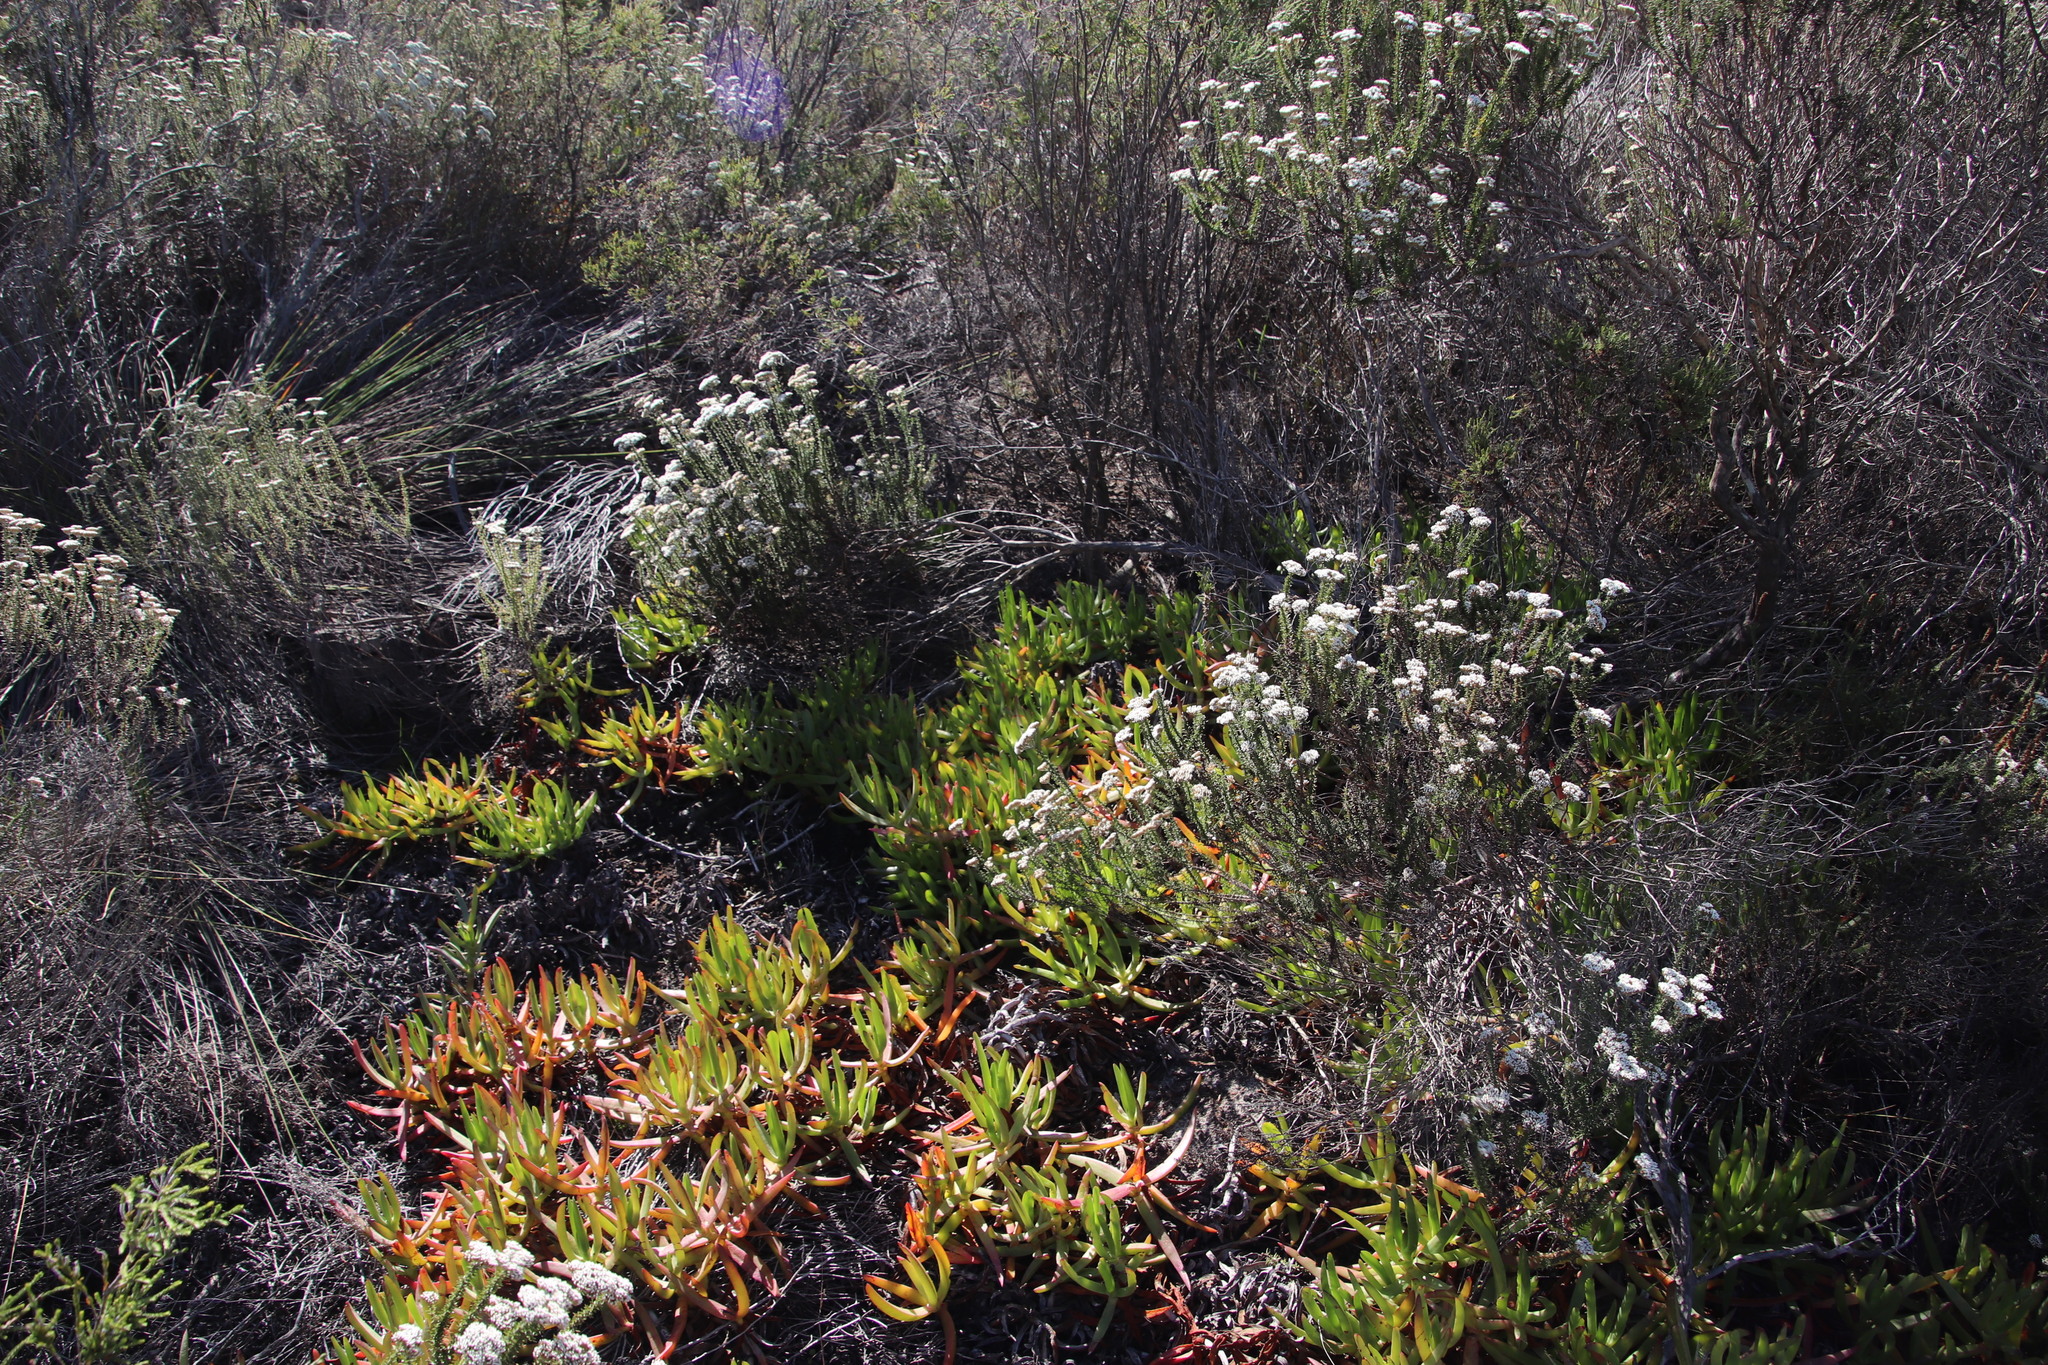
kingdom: Plantae
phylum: Tracheophyta
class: Magnoliopsida
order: Caryophyllales
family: Aizoaceae
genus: Carpobrotus
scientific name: Carpobrotus edulis
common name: Hottentot-fig
